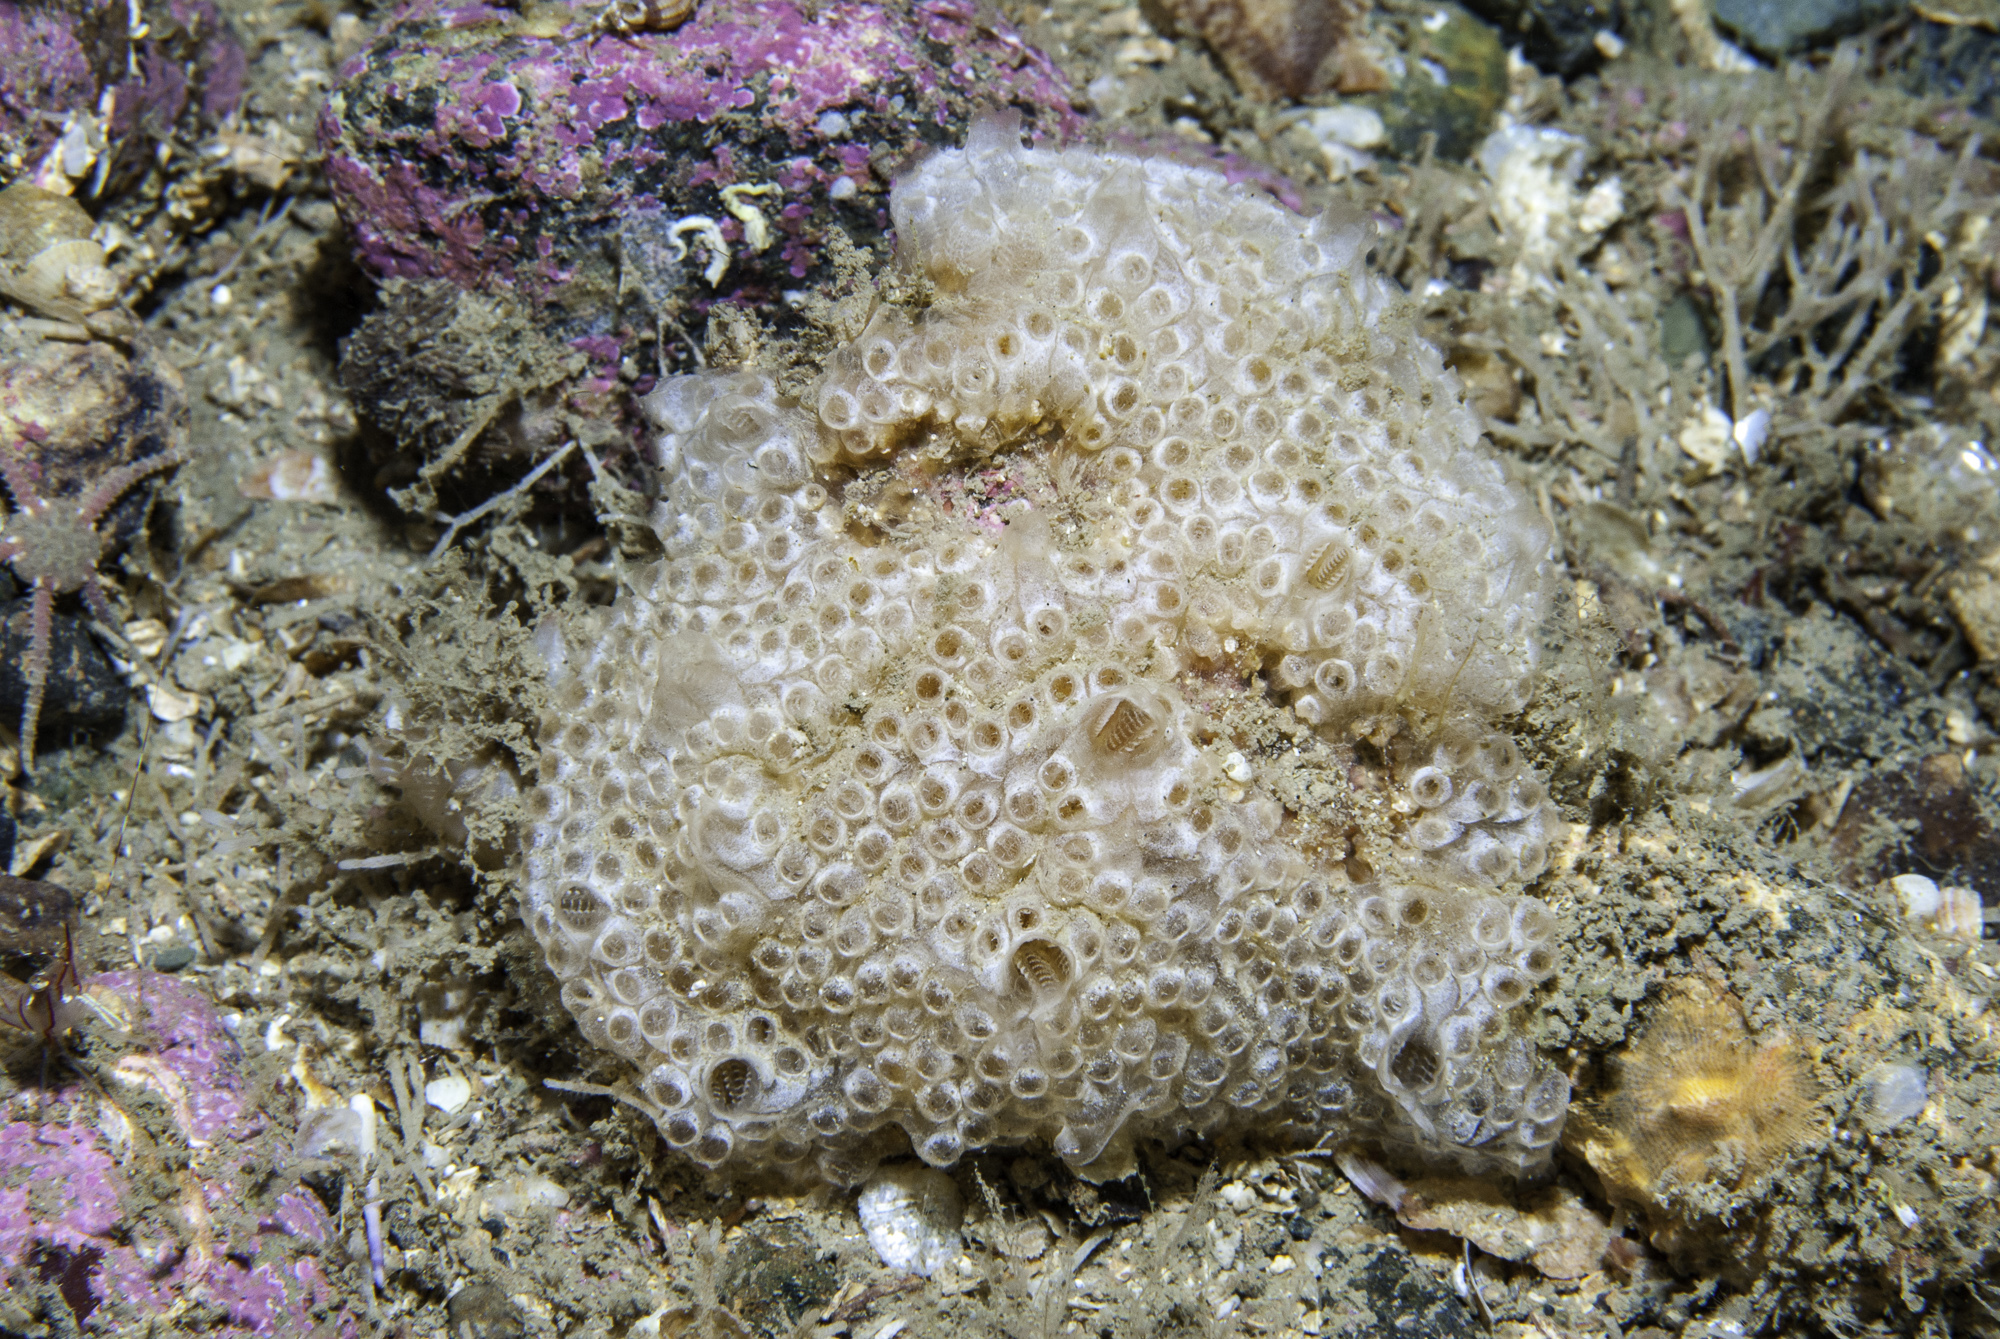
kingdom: Animalia
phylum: Chordata
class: Ascidiacea
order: Stolidobranchia
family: Styelidae
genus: Botrylloides
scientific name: Botrylloides leachii
